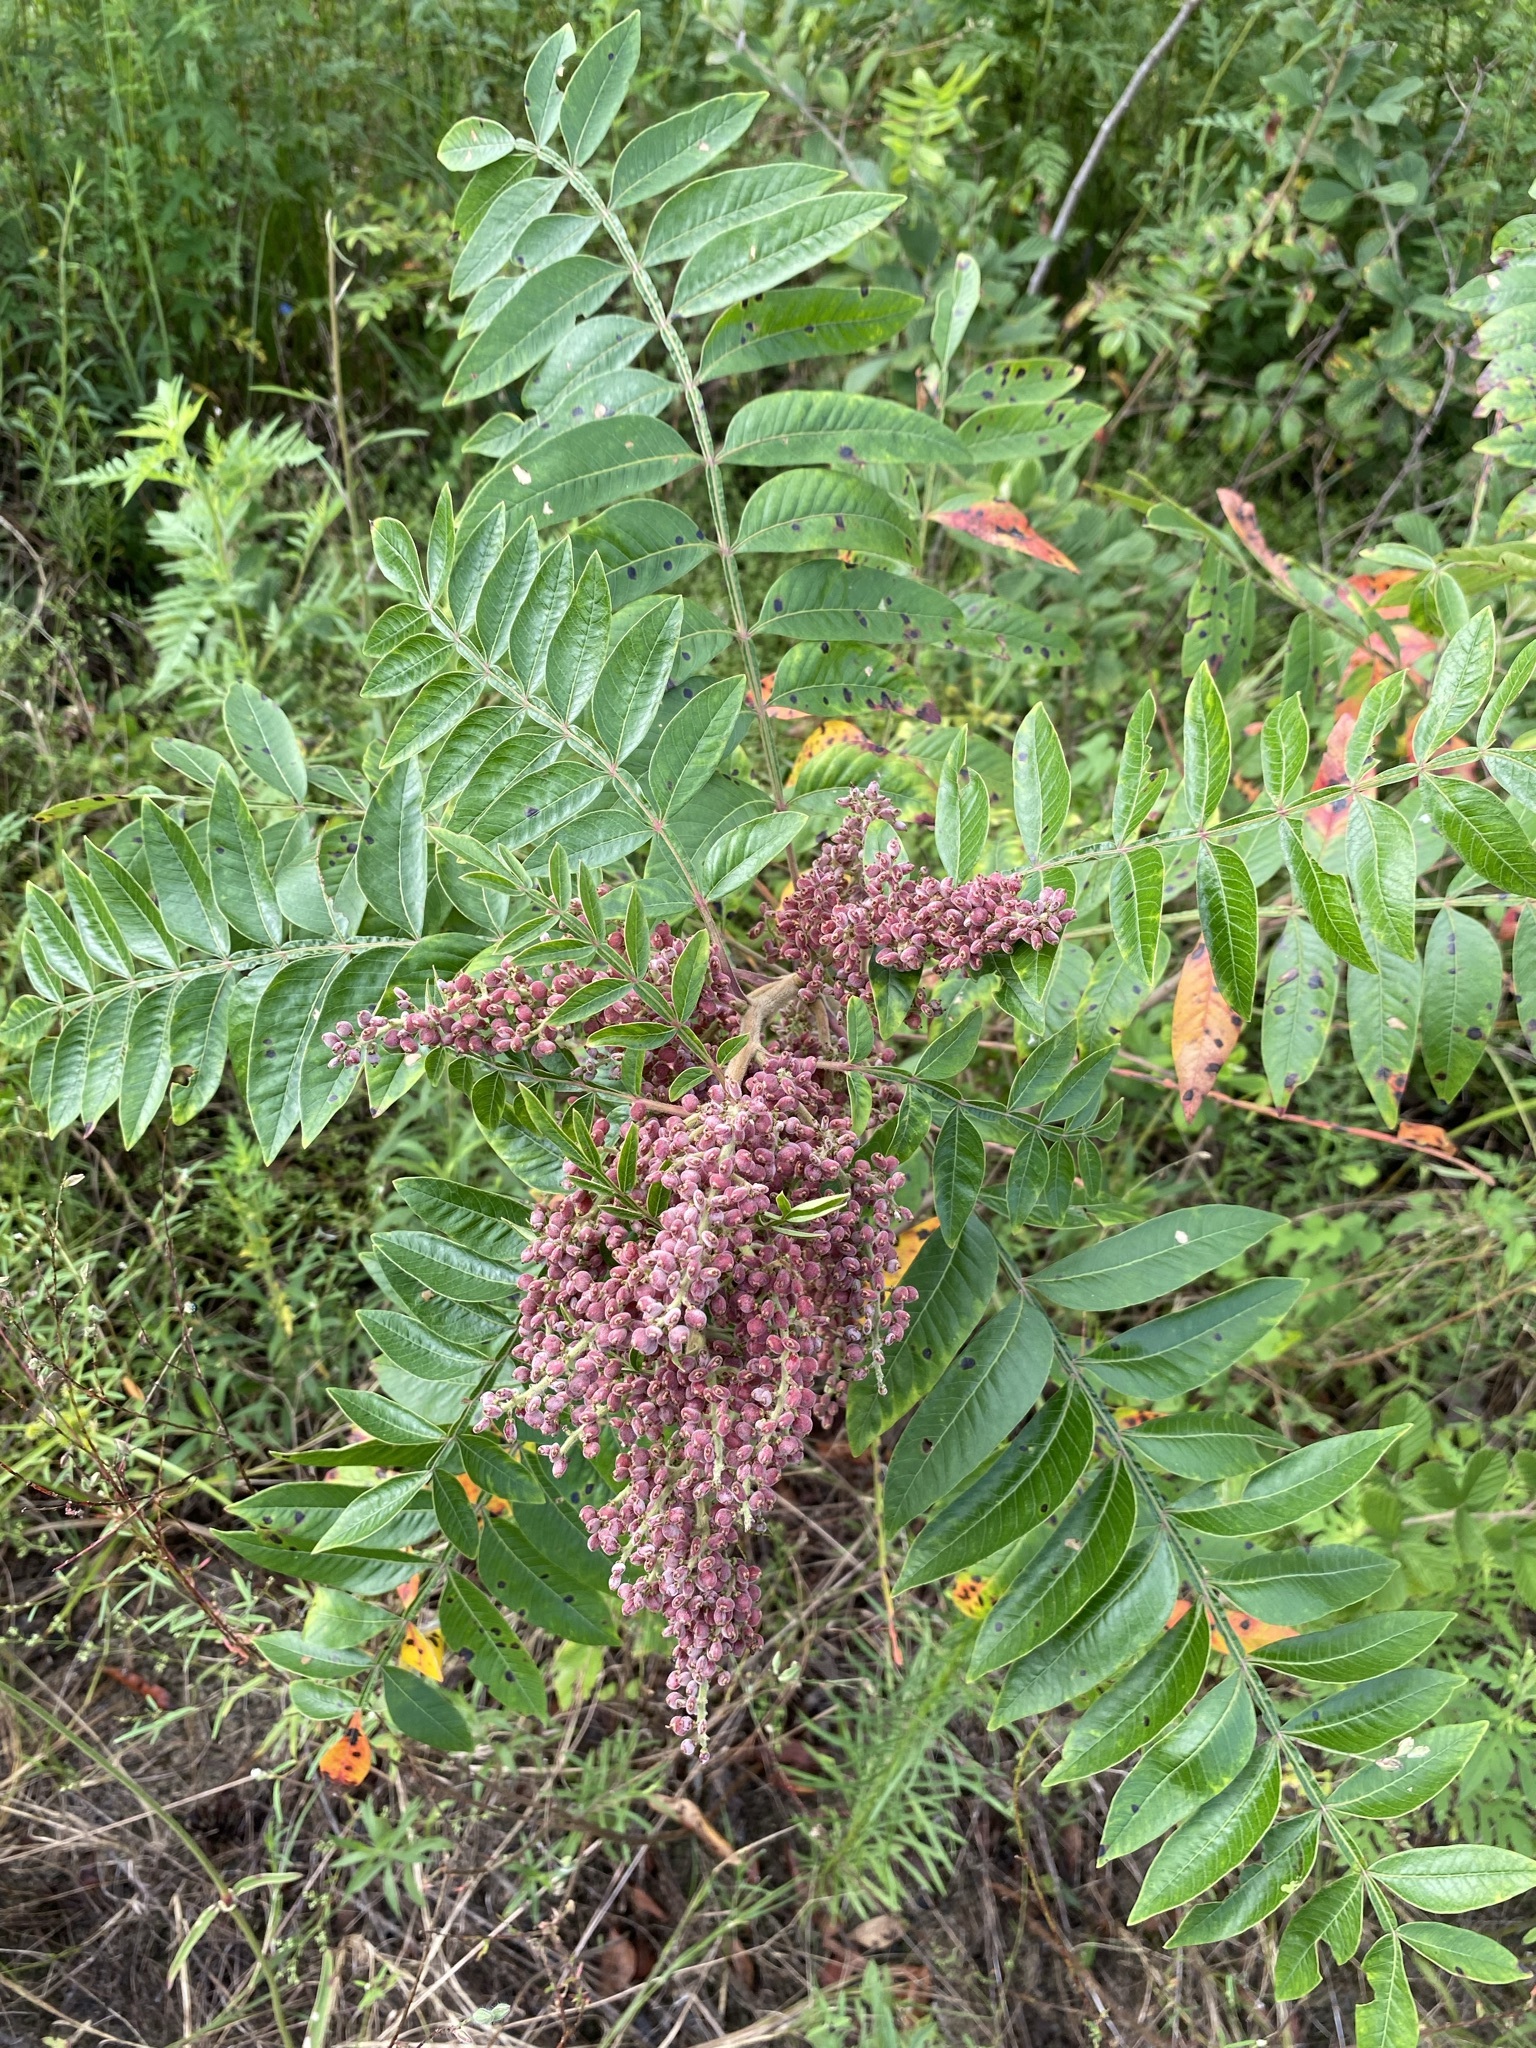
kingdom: Plantae
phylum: Tracheophyta
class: Magnoliopsida
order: Sapindales
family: Anacardiaceae
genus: Rhus
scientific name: Rhus copallina
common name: Shining sumac
